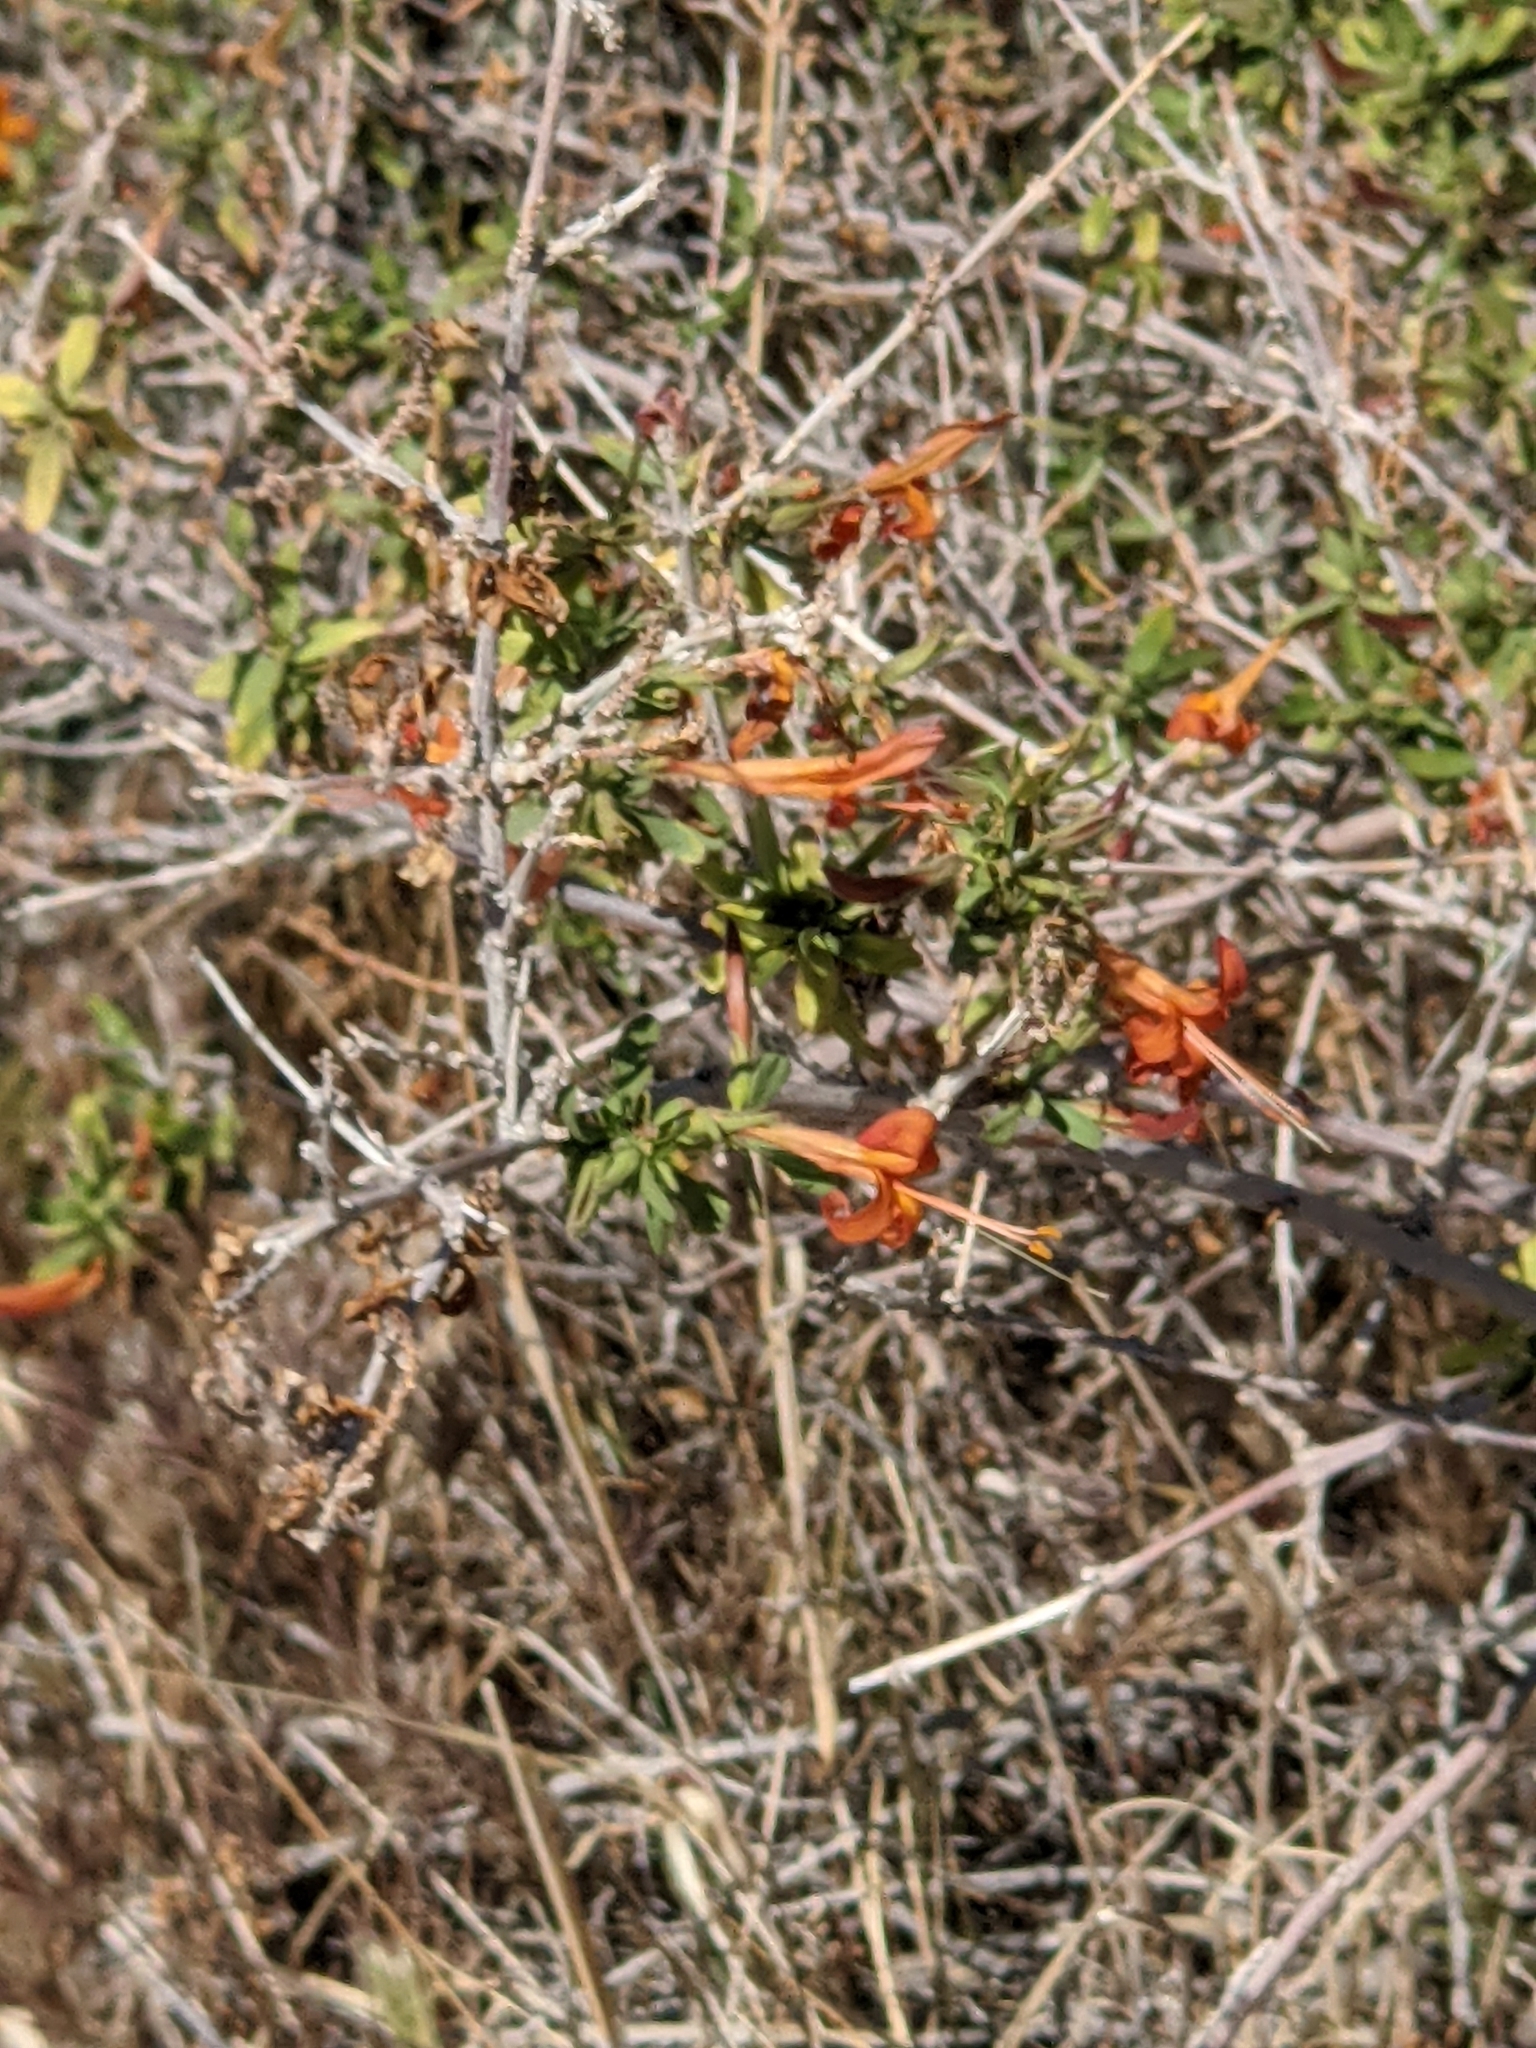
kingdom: Plantae
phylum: Tracheophyta
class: Magnoliopsida
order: Lamiales
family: Acanthaceae
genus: Anisacanthus
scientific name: Anisacanthus thurberi
